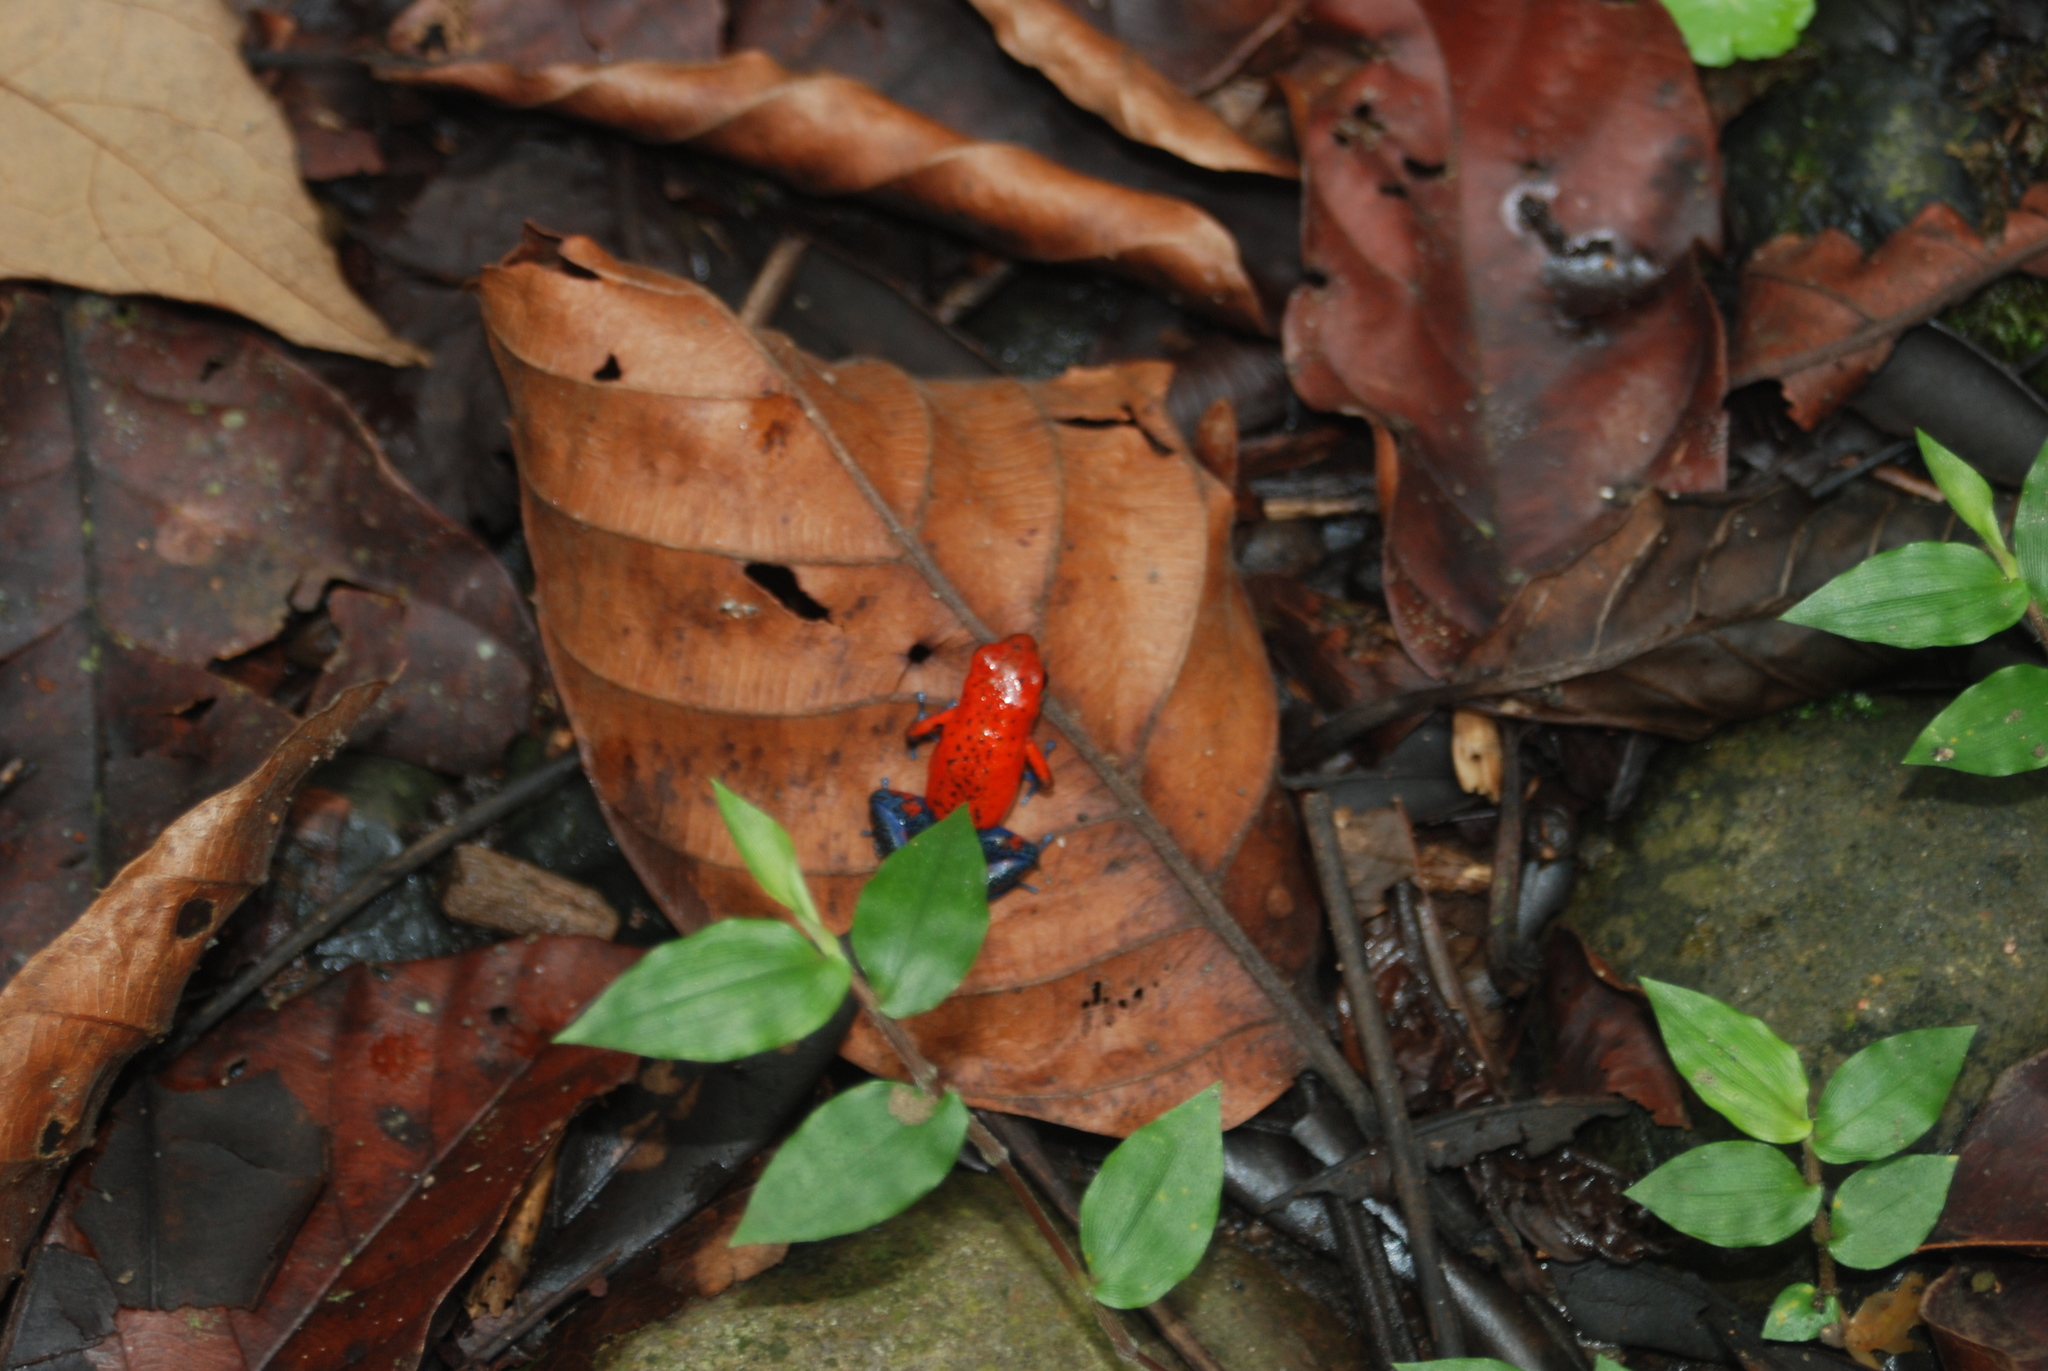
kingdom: Animalia
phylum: Chordata
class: Amphibia
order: Anura
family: Dendrobatidae
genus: Oophaga
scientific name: Oophaga pumilio
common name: Flaming poison frog
